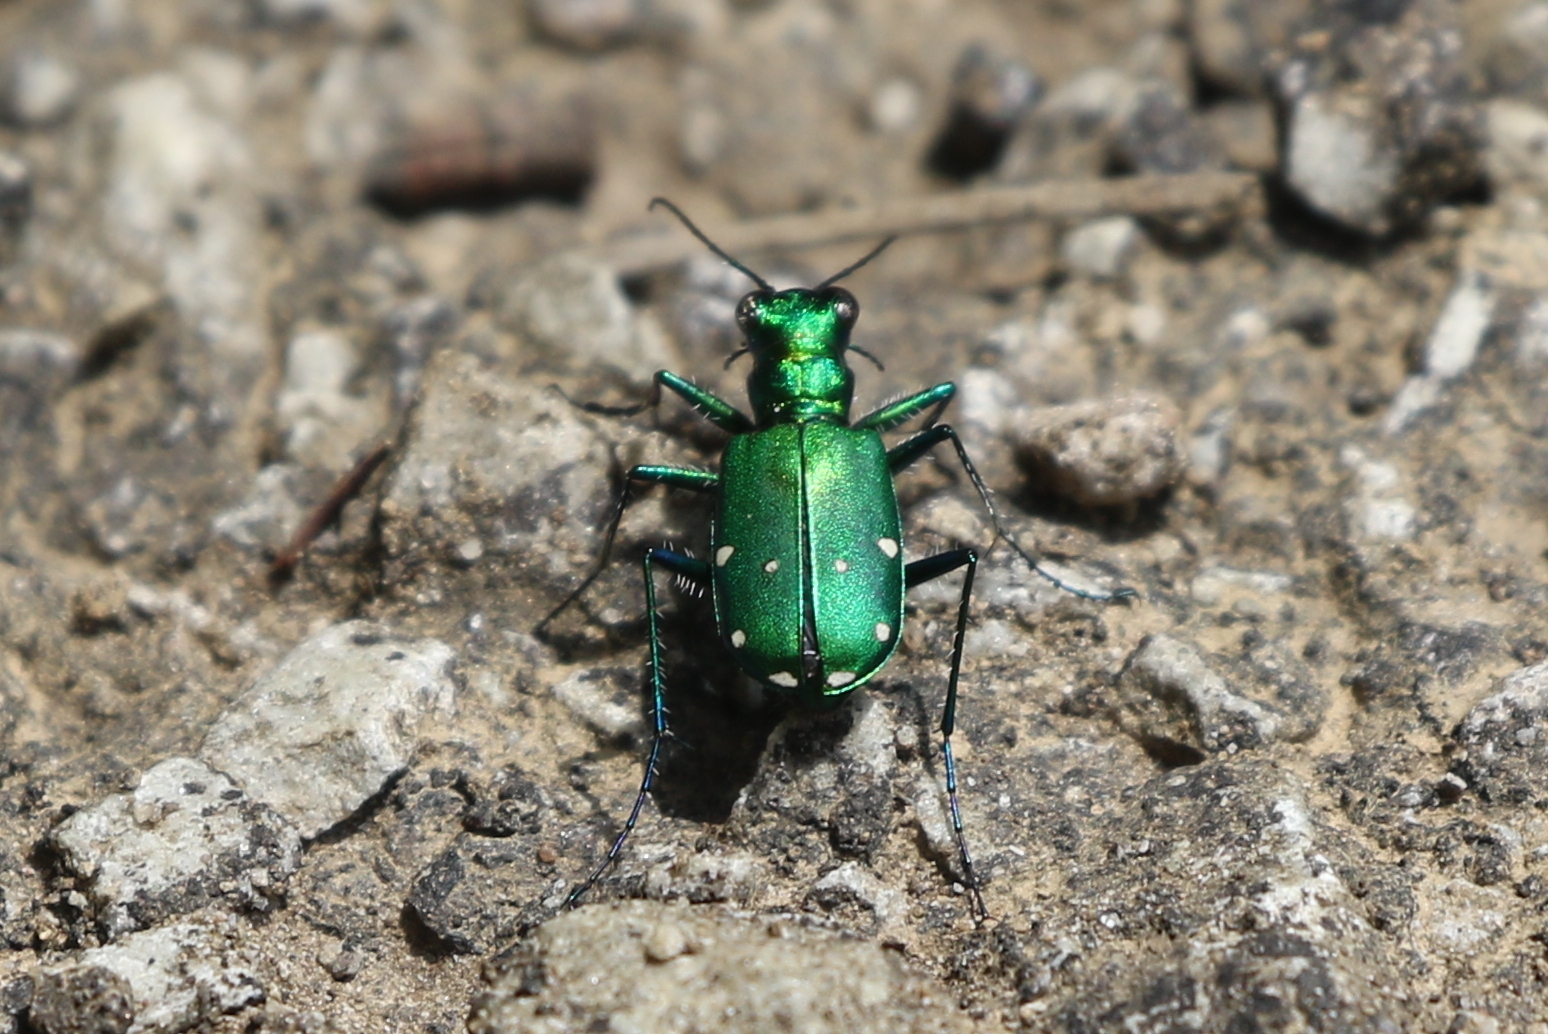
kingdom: Animalia
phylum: Arthropoda
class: Insecta
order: Coleoptera
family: Carabidae
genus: Cicindela
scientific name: Cicindela sexguttata
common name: Six-spotted tiger beetle
